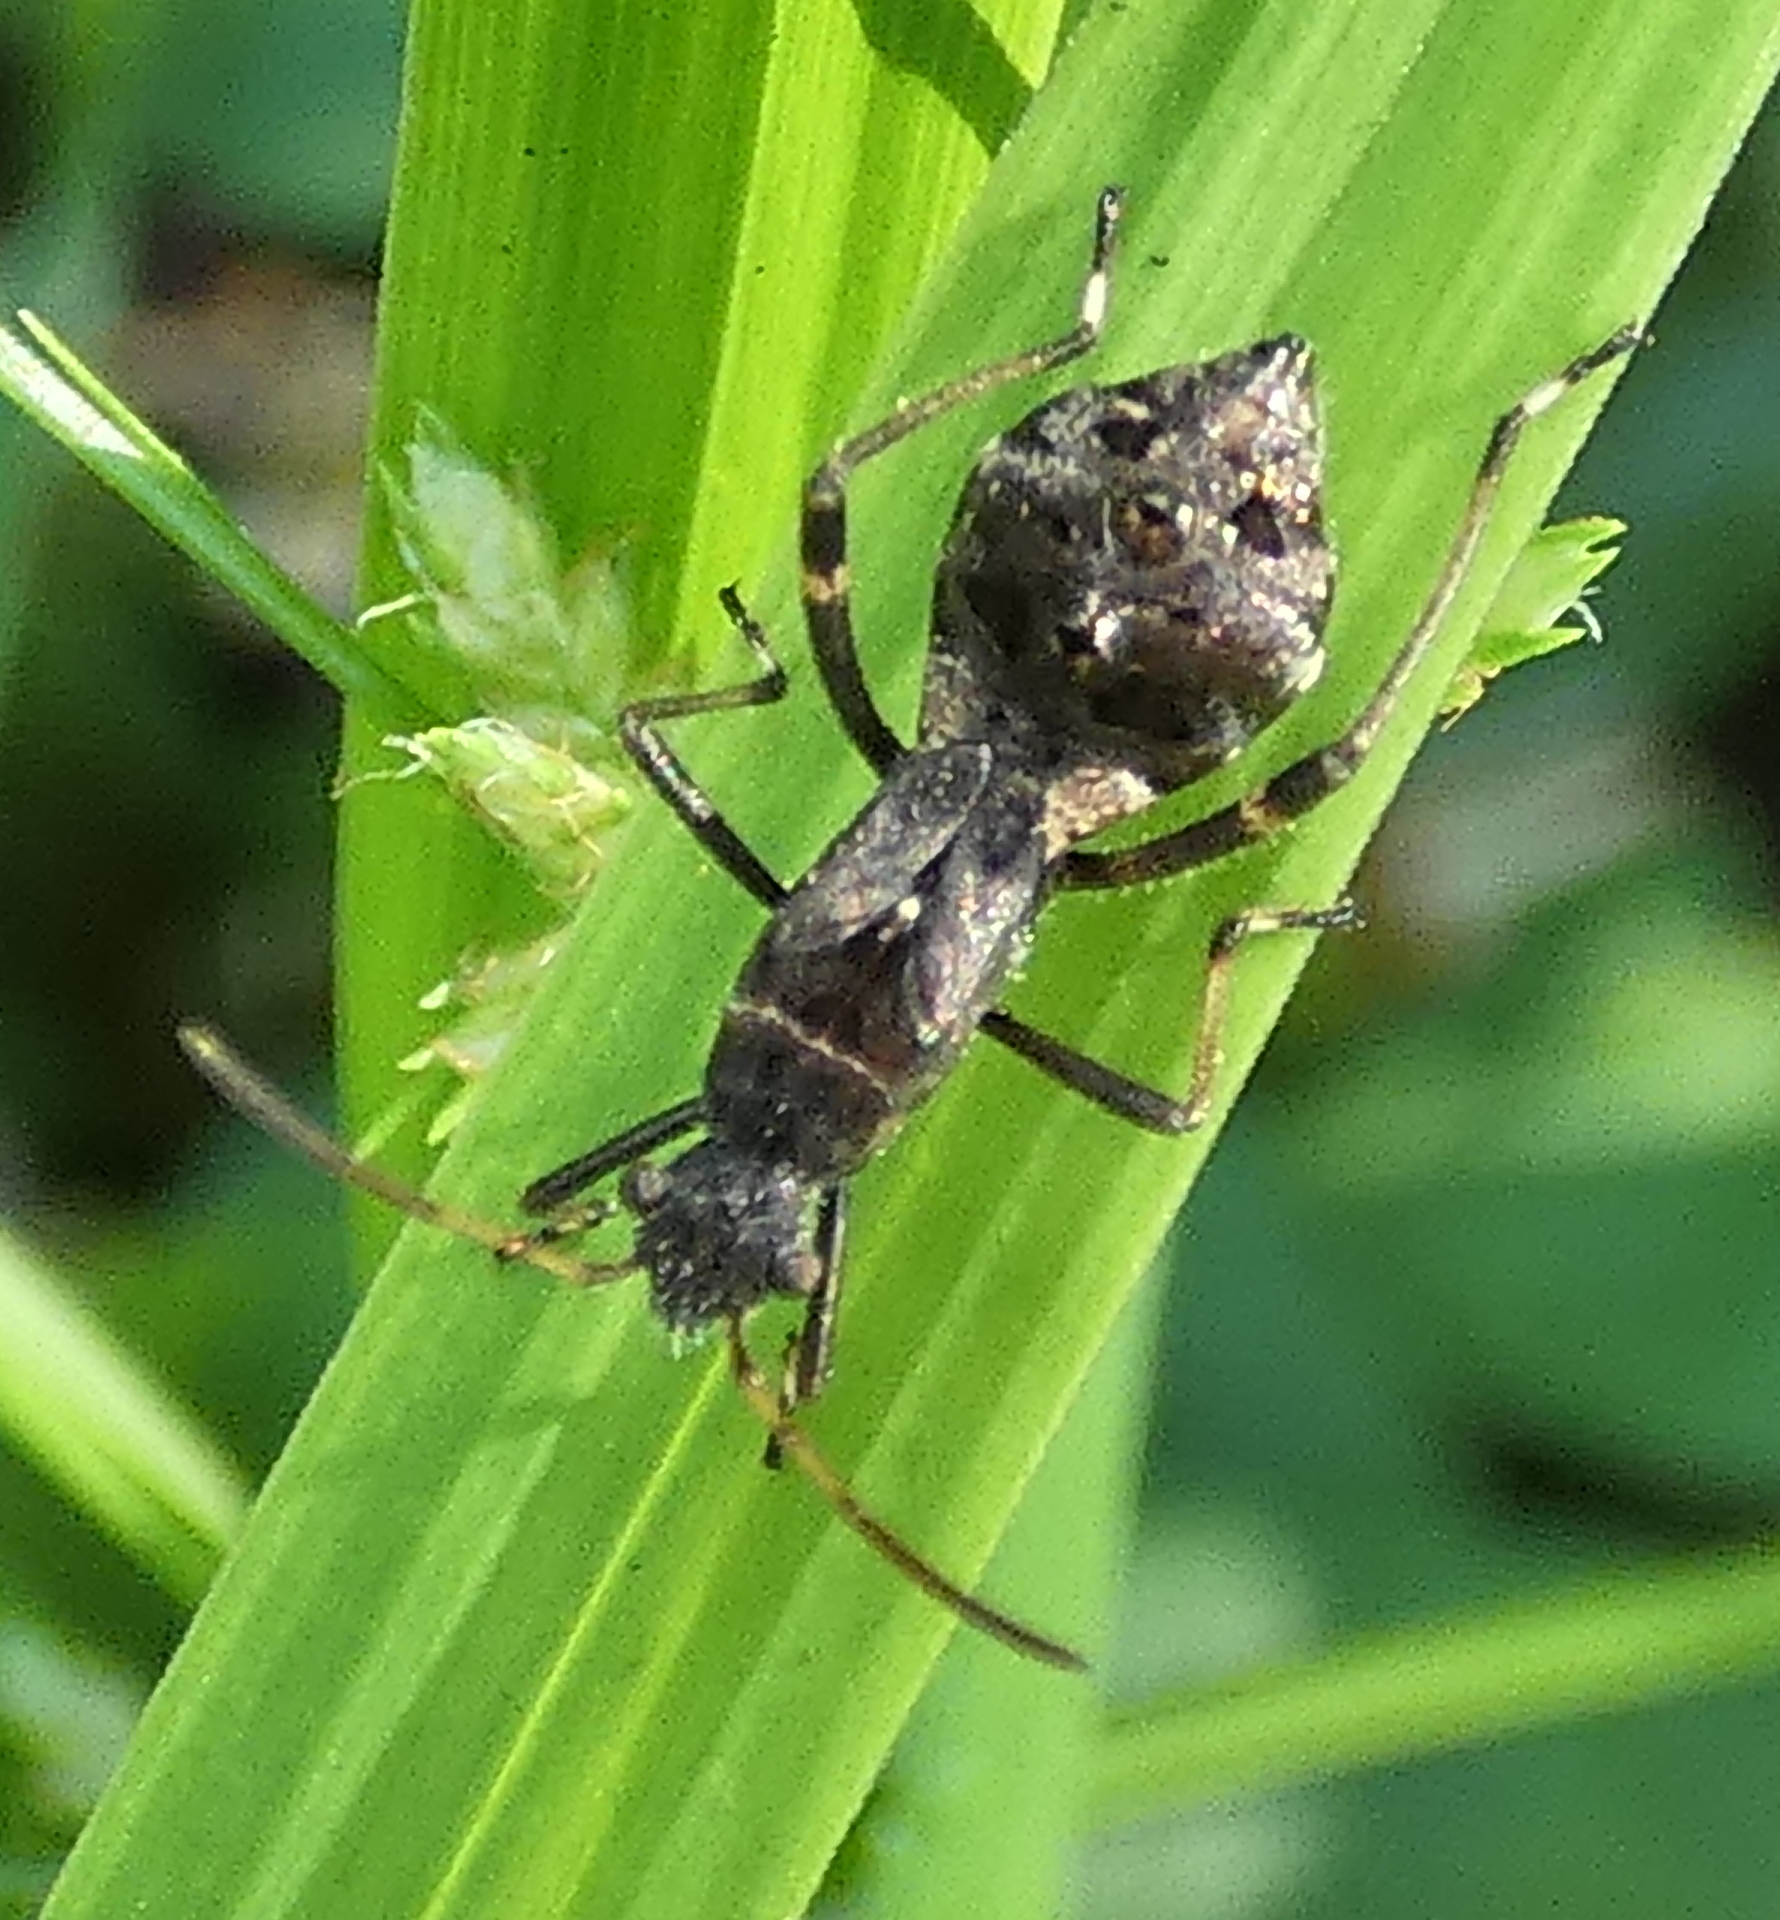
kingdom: Animalia
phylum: Arthropoda
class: Insecta
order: Hemiptera
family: Alydidae
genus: Neomegalotomus
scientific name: Neomegalotomus parvus
